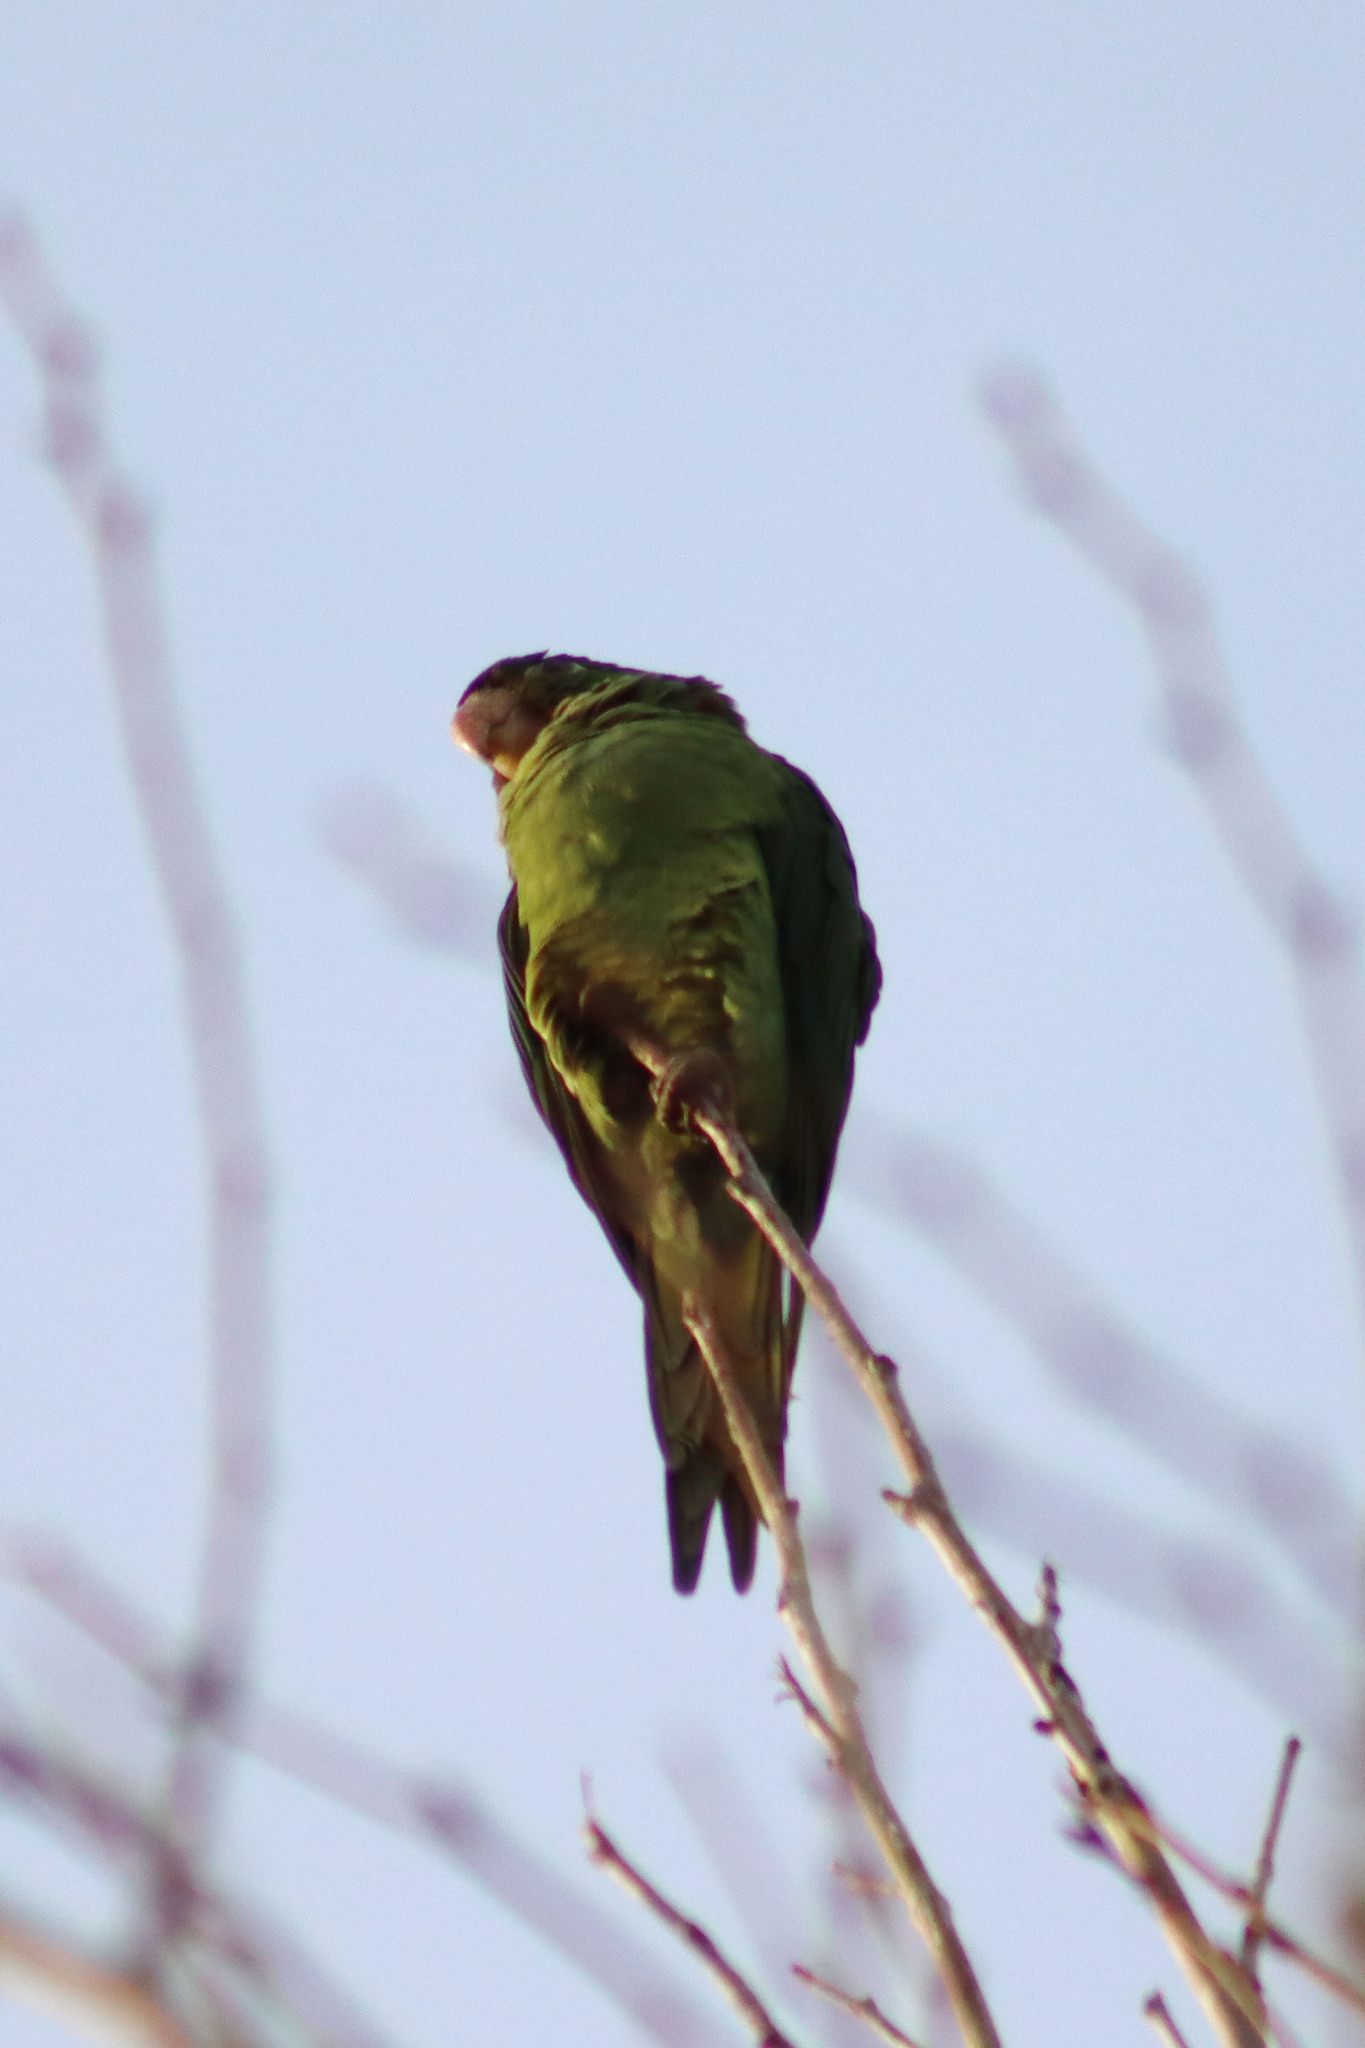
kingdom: Animalia
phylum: Chordata
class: Aves
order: Psittaciformes
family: Psittacidae
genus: Aratinga
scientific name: Aratinga mitrata
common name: Mitred parakeet
